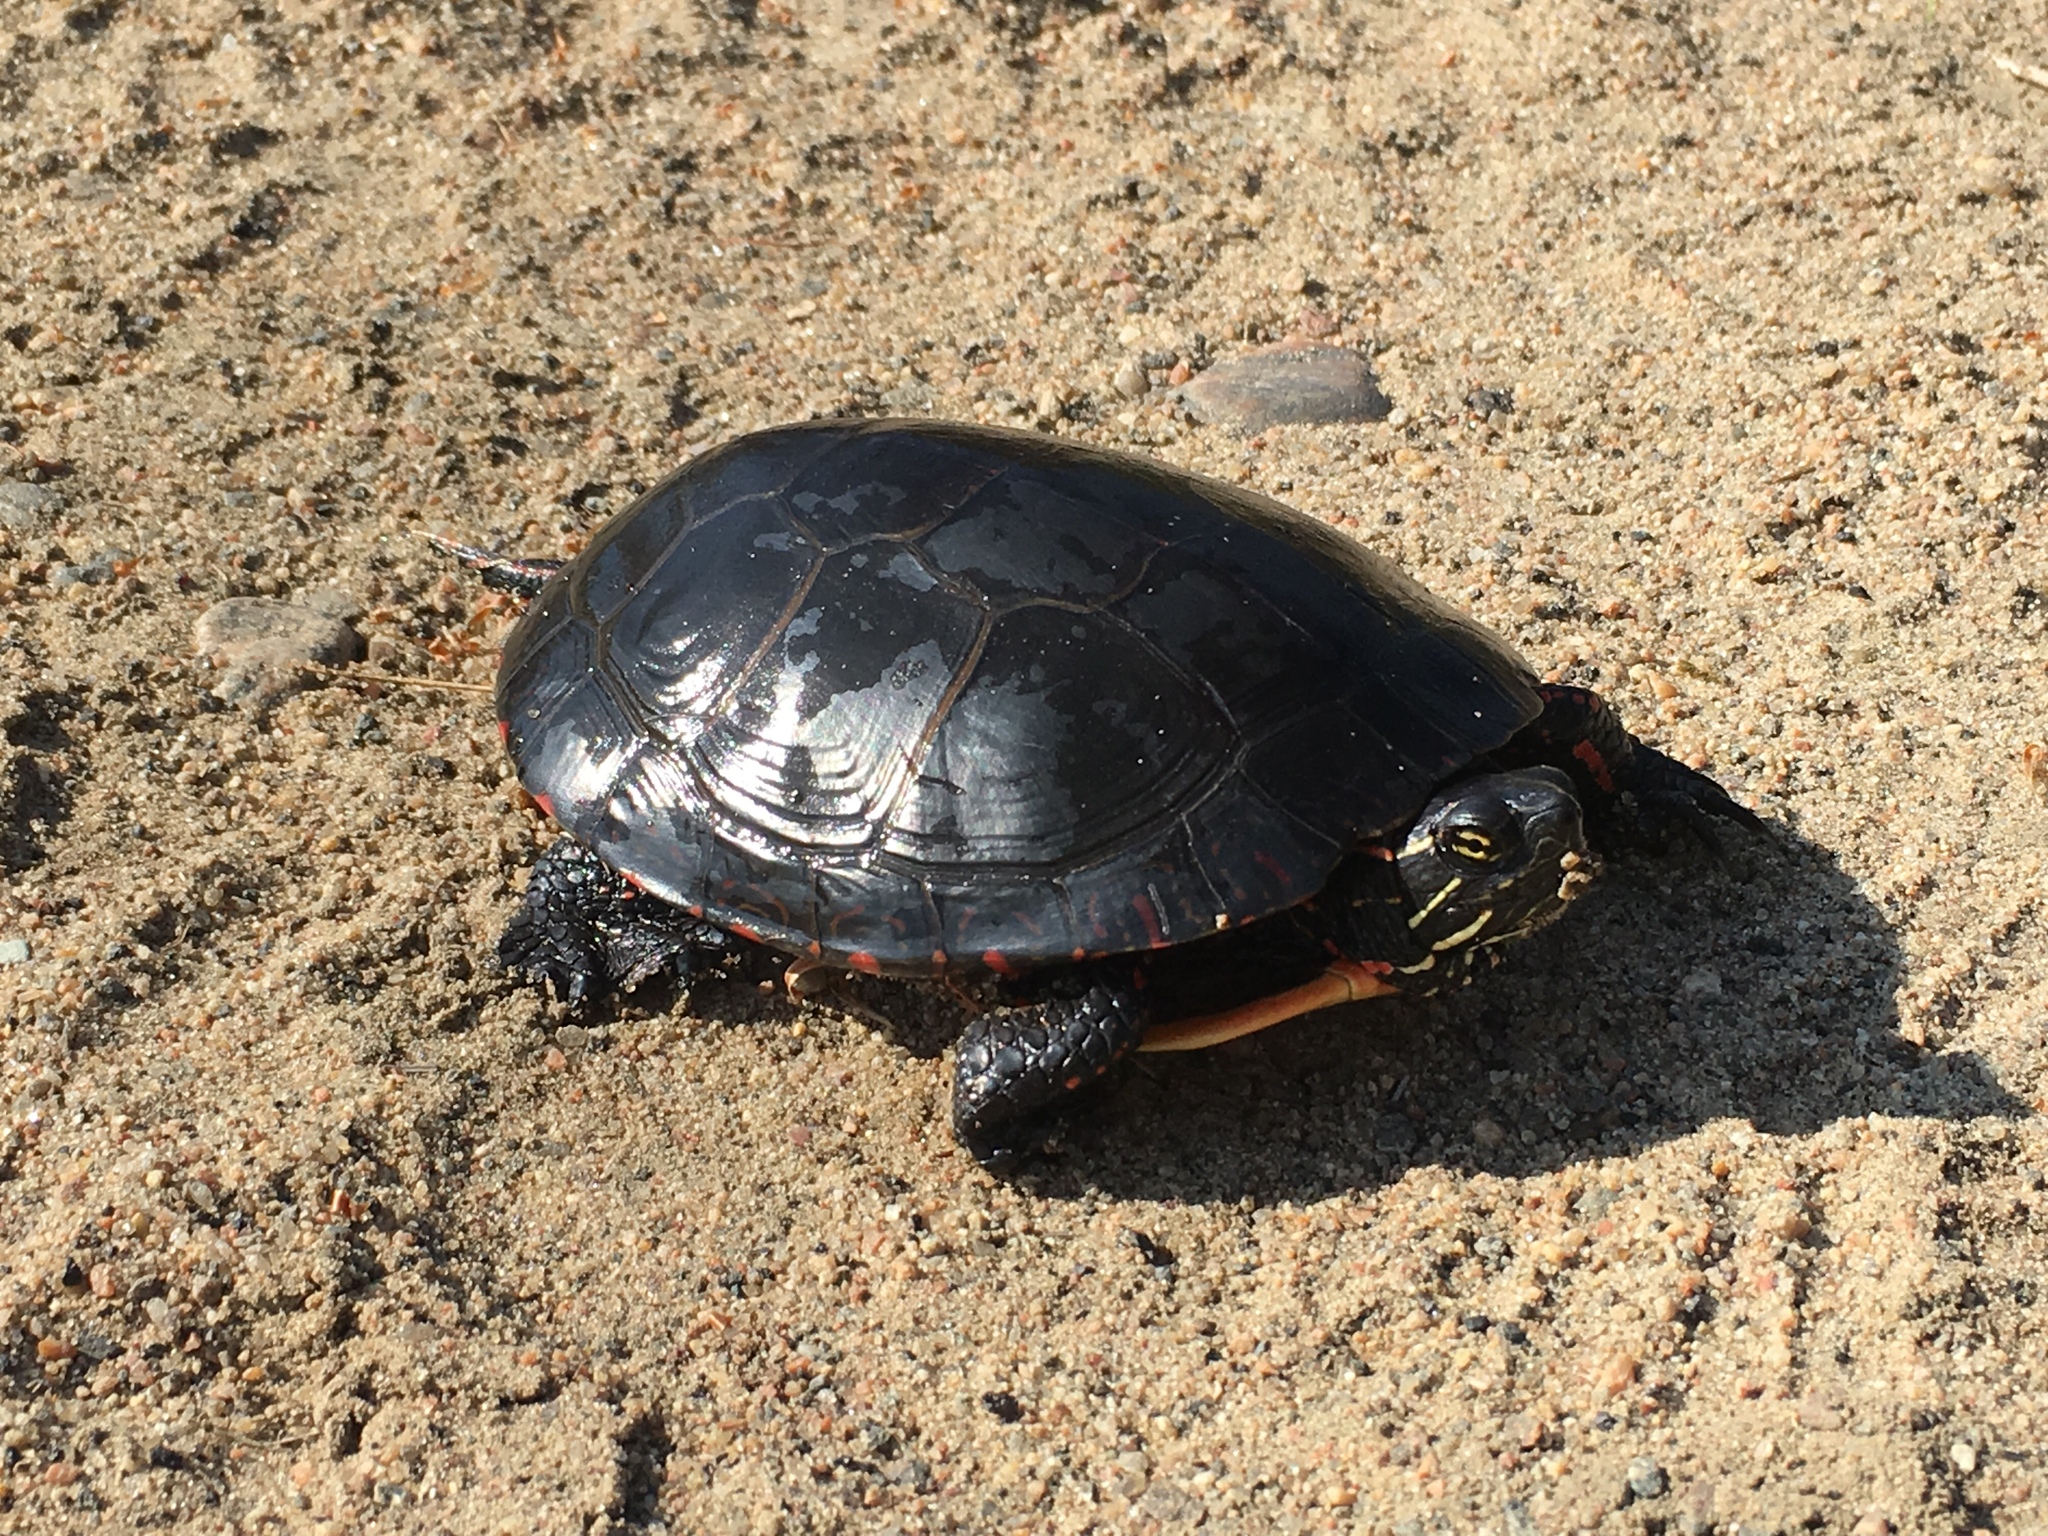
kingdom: Animalia
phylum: Chordata
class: Testudines
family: Emydidae
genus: Chrysemys
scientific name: Chrysemys picta
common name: Painted turtle
